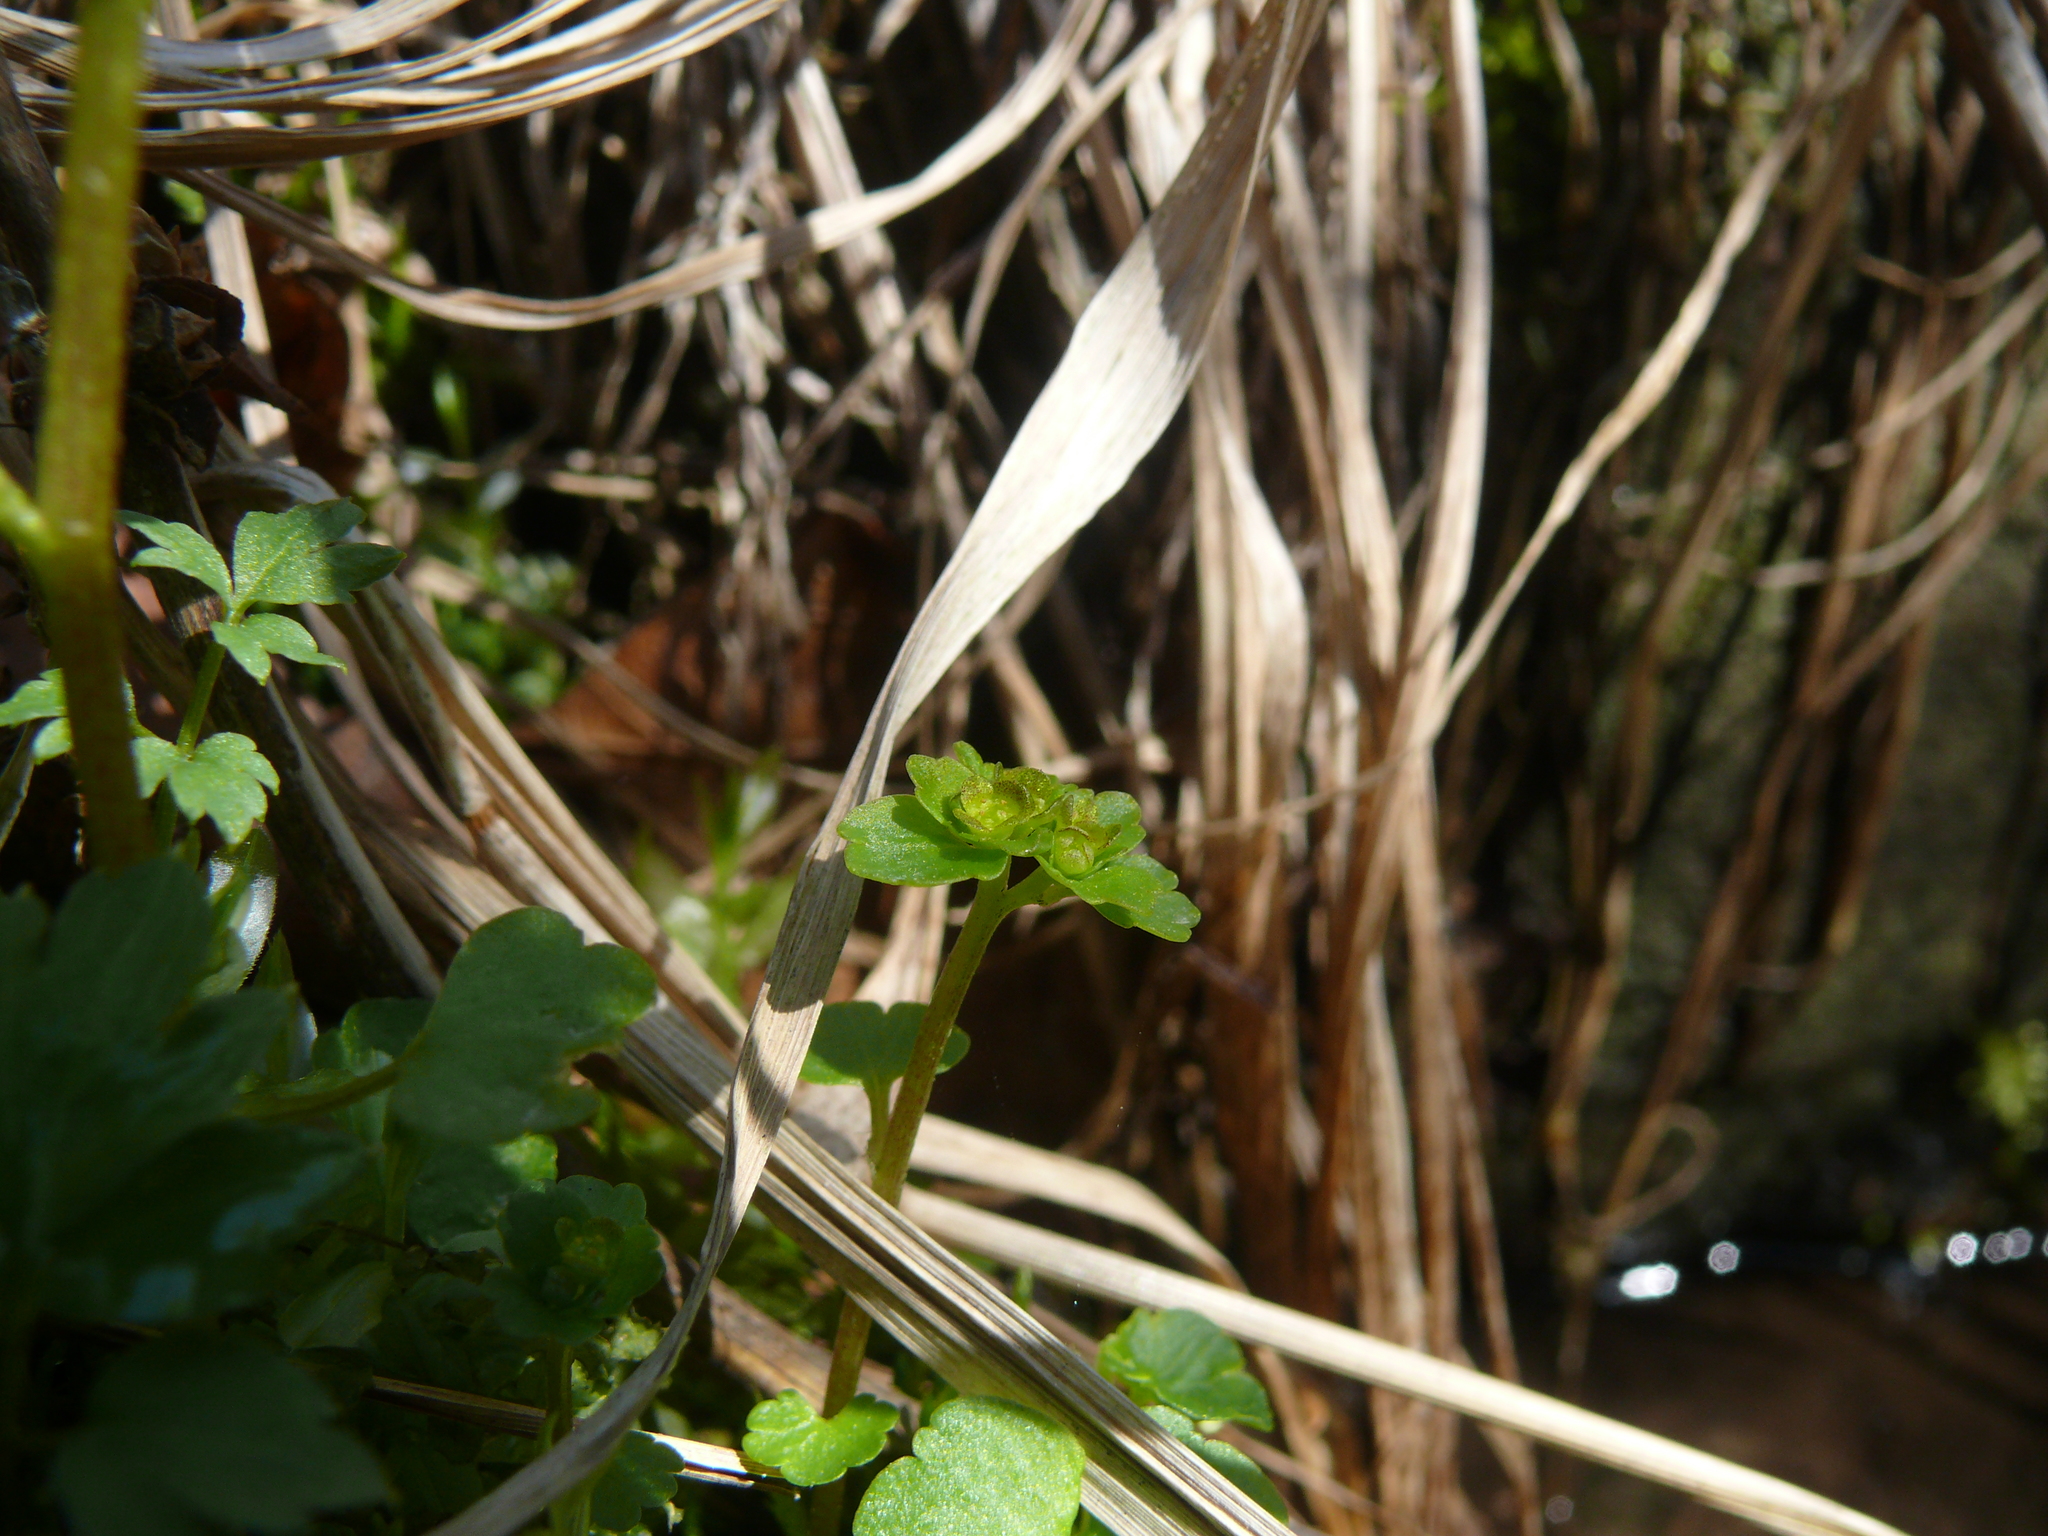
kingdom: Plantae
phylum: Tracheophyta
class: Magnoliopsida
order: Saxifragales
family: Saxifragaceae
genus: Chrysosplenium
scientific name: Chrysosplenium tetrandrum
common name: Green saxifrage
